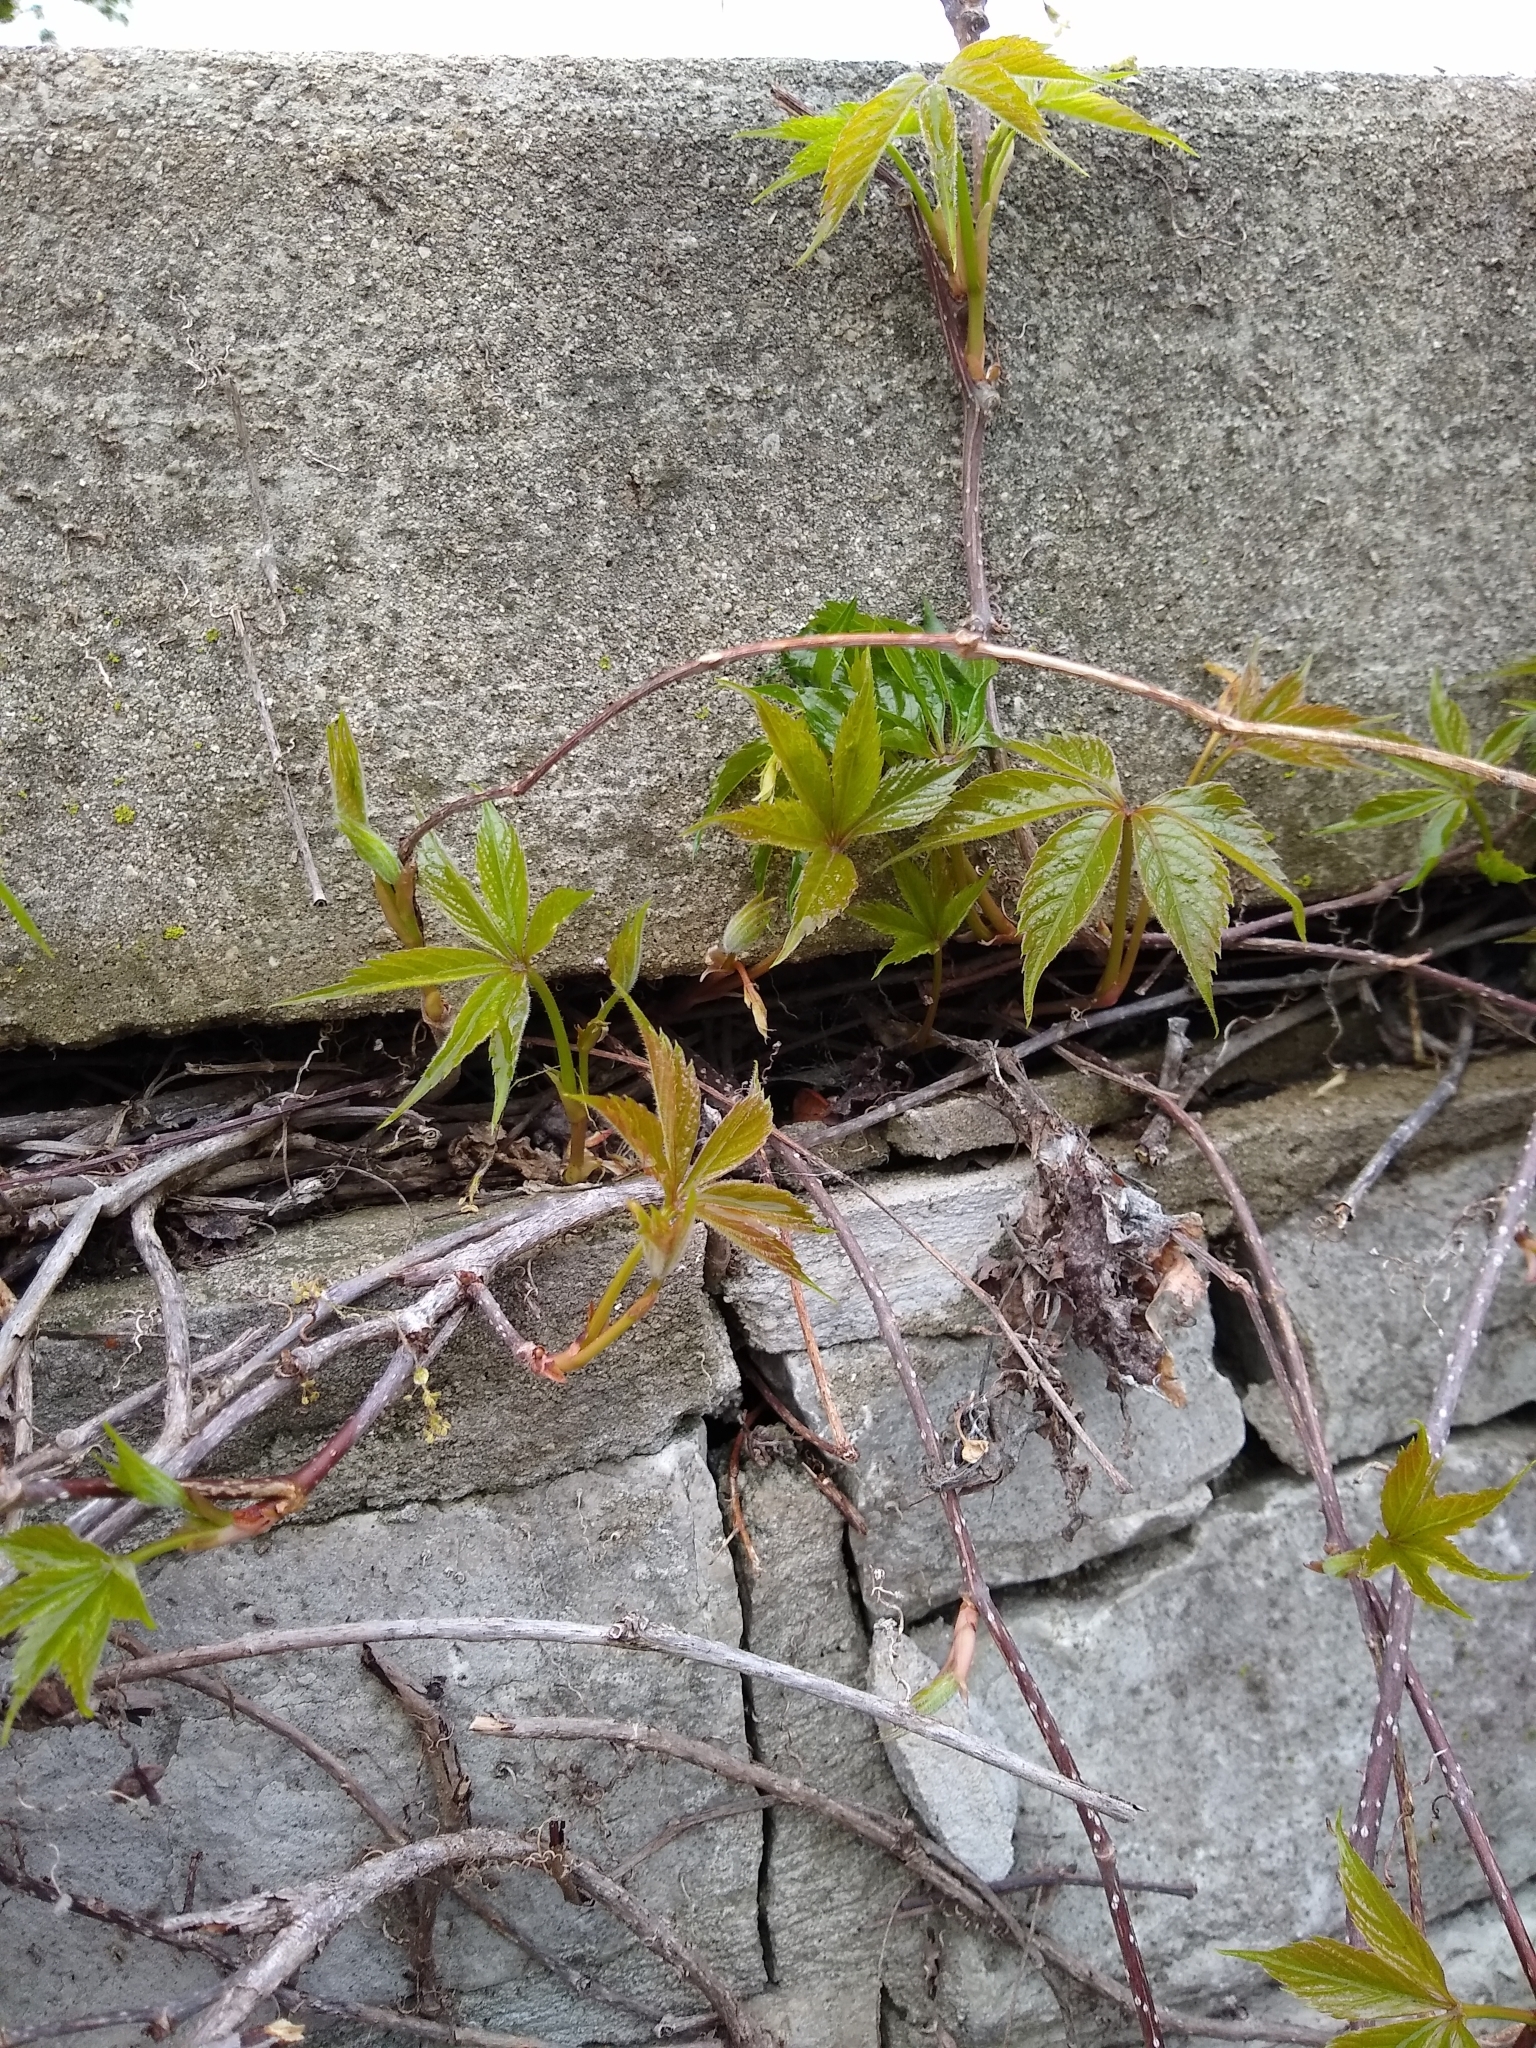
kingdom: Plantae
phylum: Tracheophyta
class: Magnoliopsida
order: Vitales
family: Vitaceae
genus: Parthenocissus
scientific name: Parthenocissus quinquefolia
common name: Virginia-creeper
